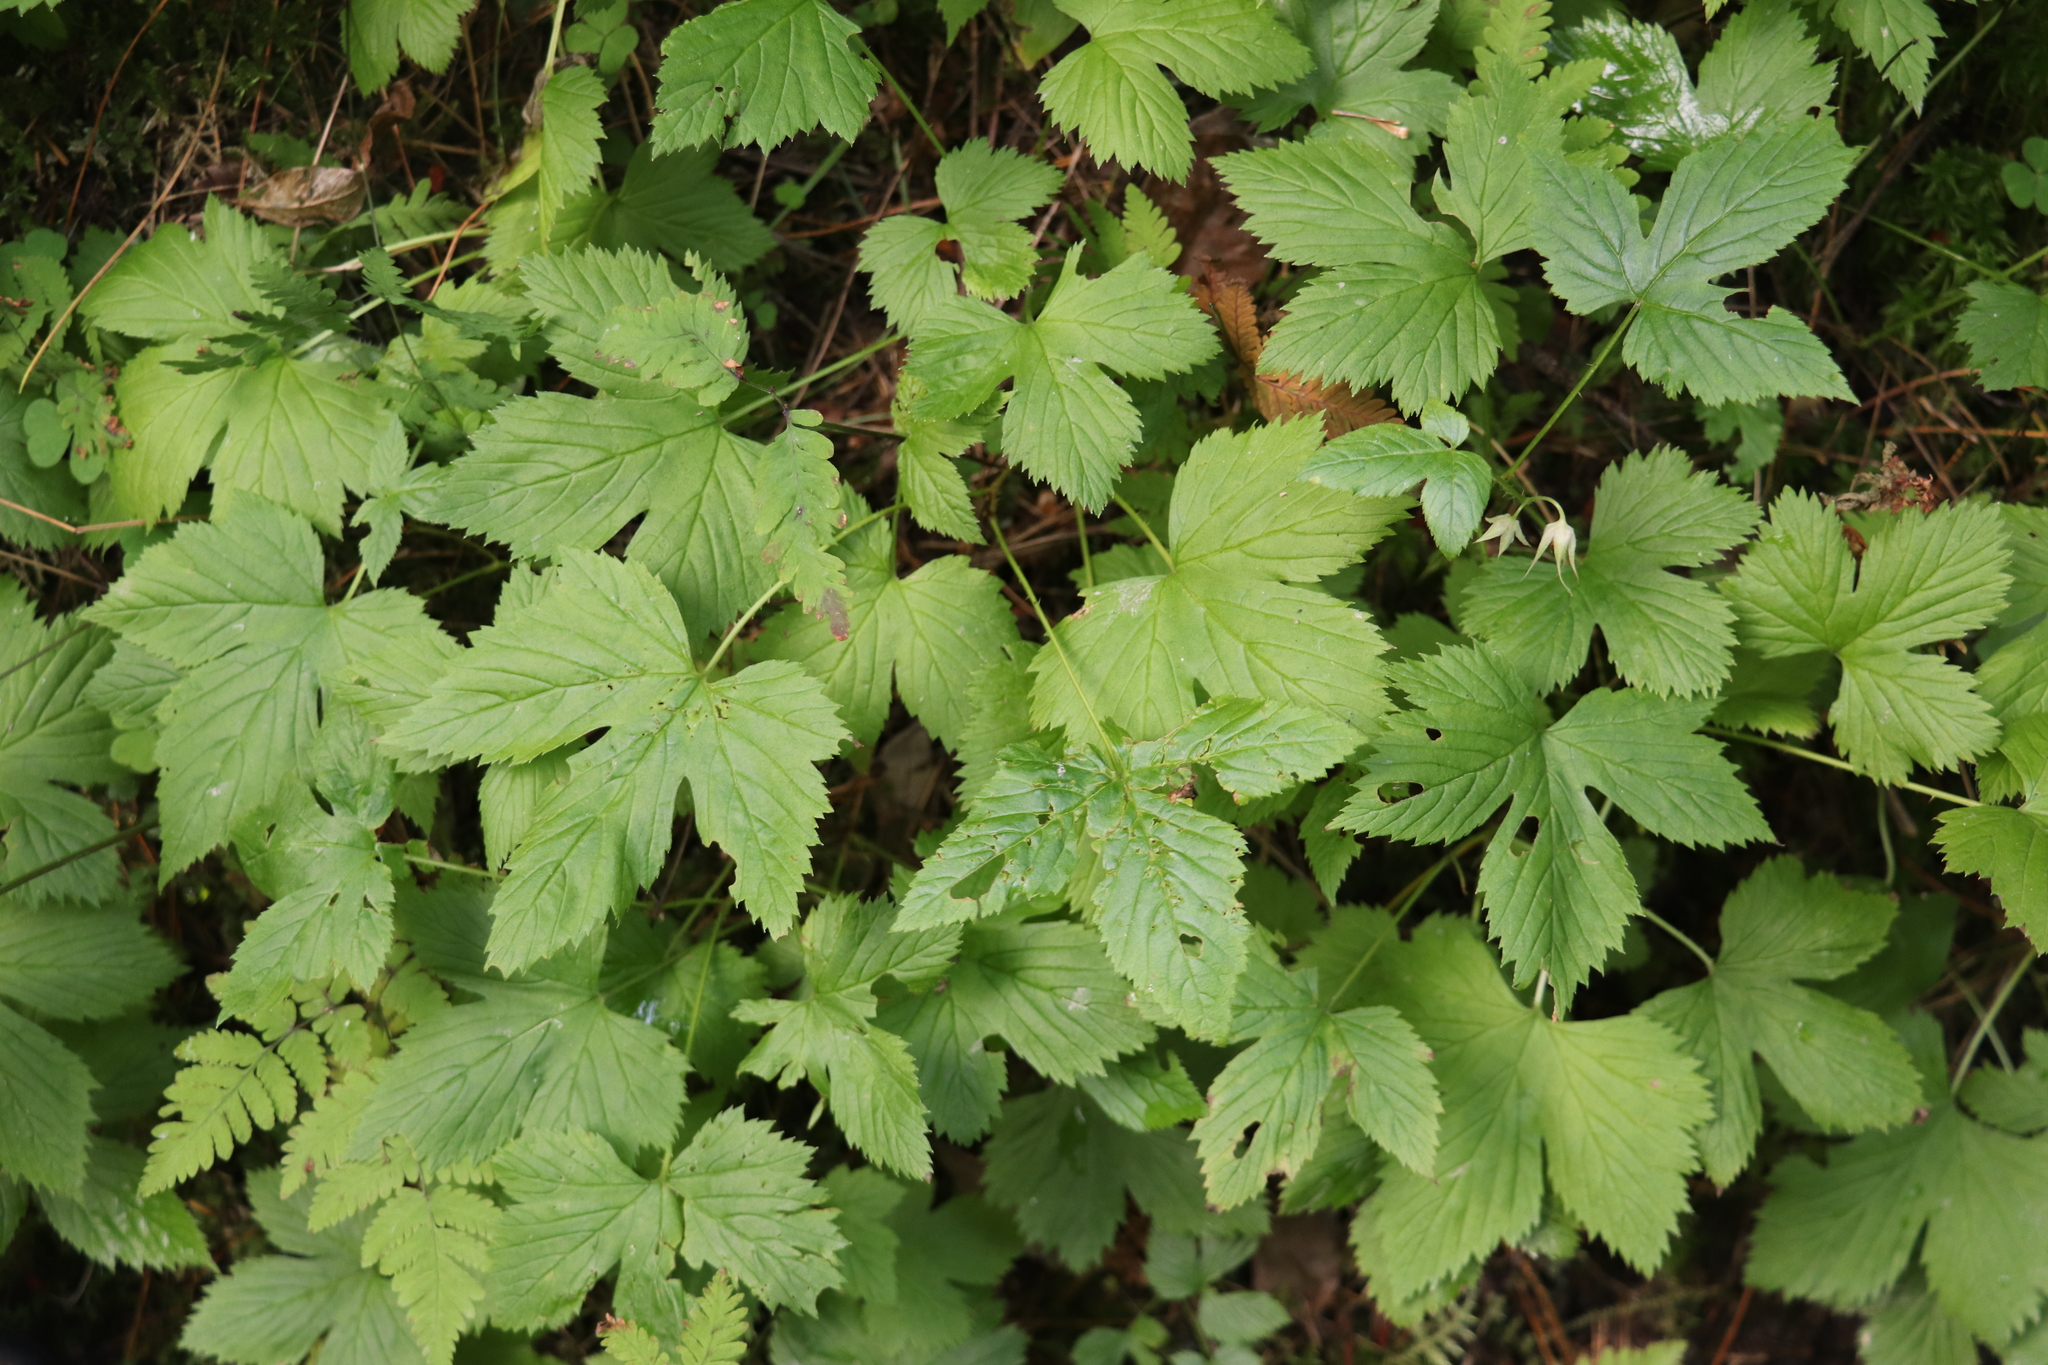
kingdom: Plantae
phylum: Tracheophyta
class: Magnoliopsida
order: Rosales
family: Rosaceae
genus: Rubus
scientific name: Rubus humulifolius
